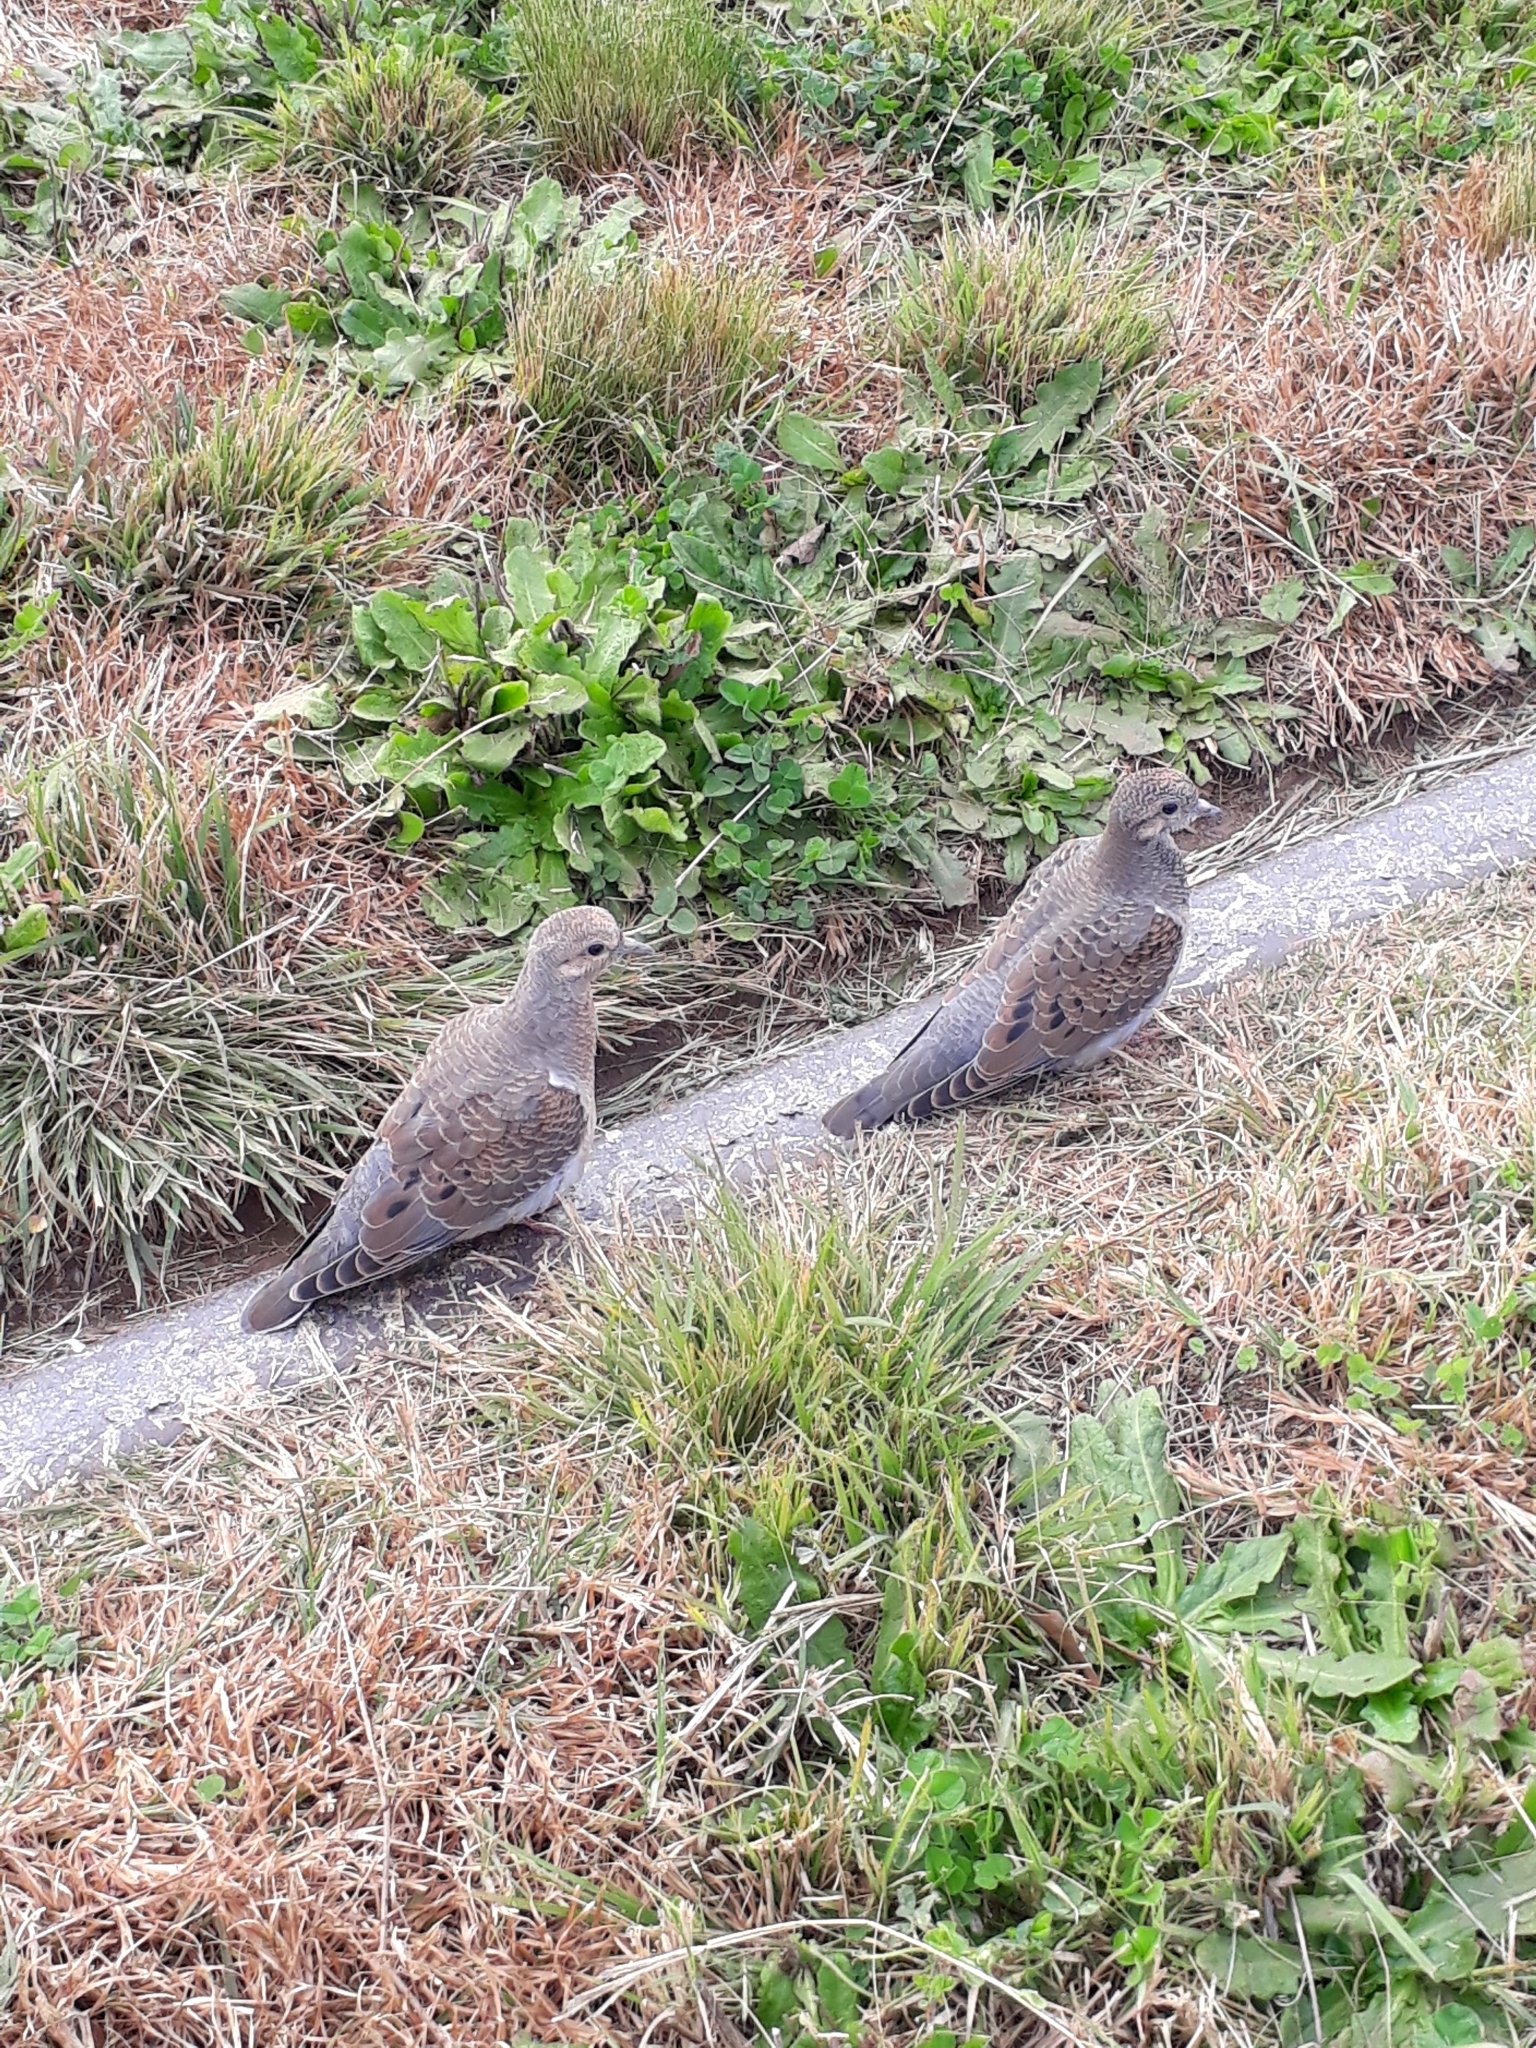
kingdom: Animalia
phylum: Chordata
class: Aves
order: Columbiformes
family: Columbidae
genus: Zenaida
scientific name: Zenaida auriculata
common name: Eared dove
